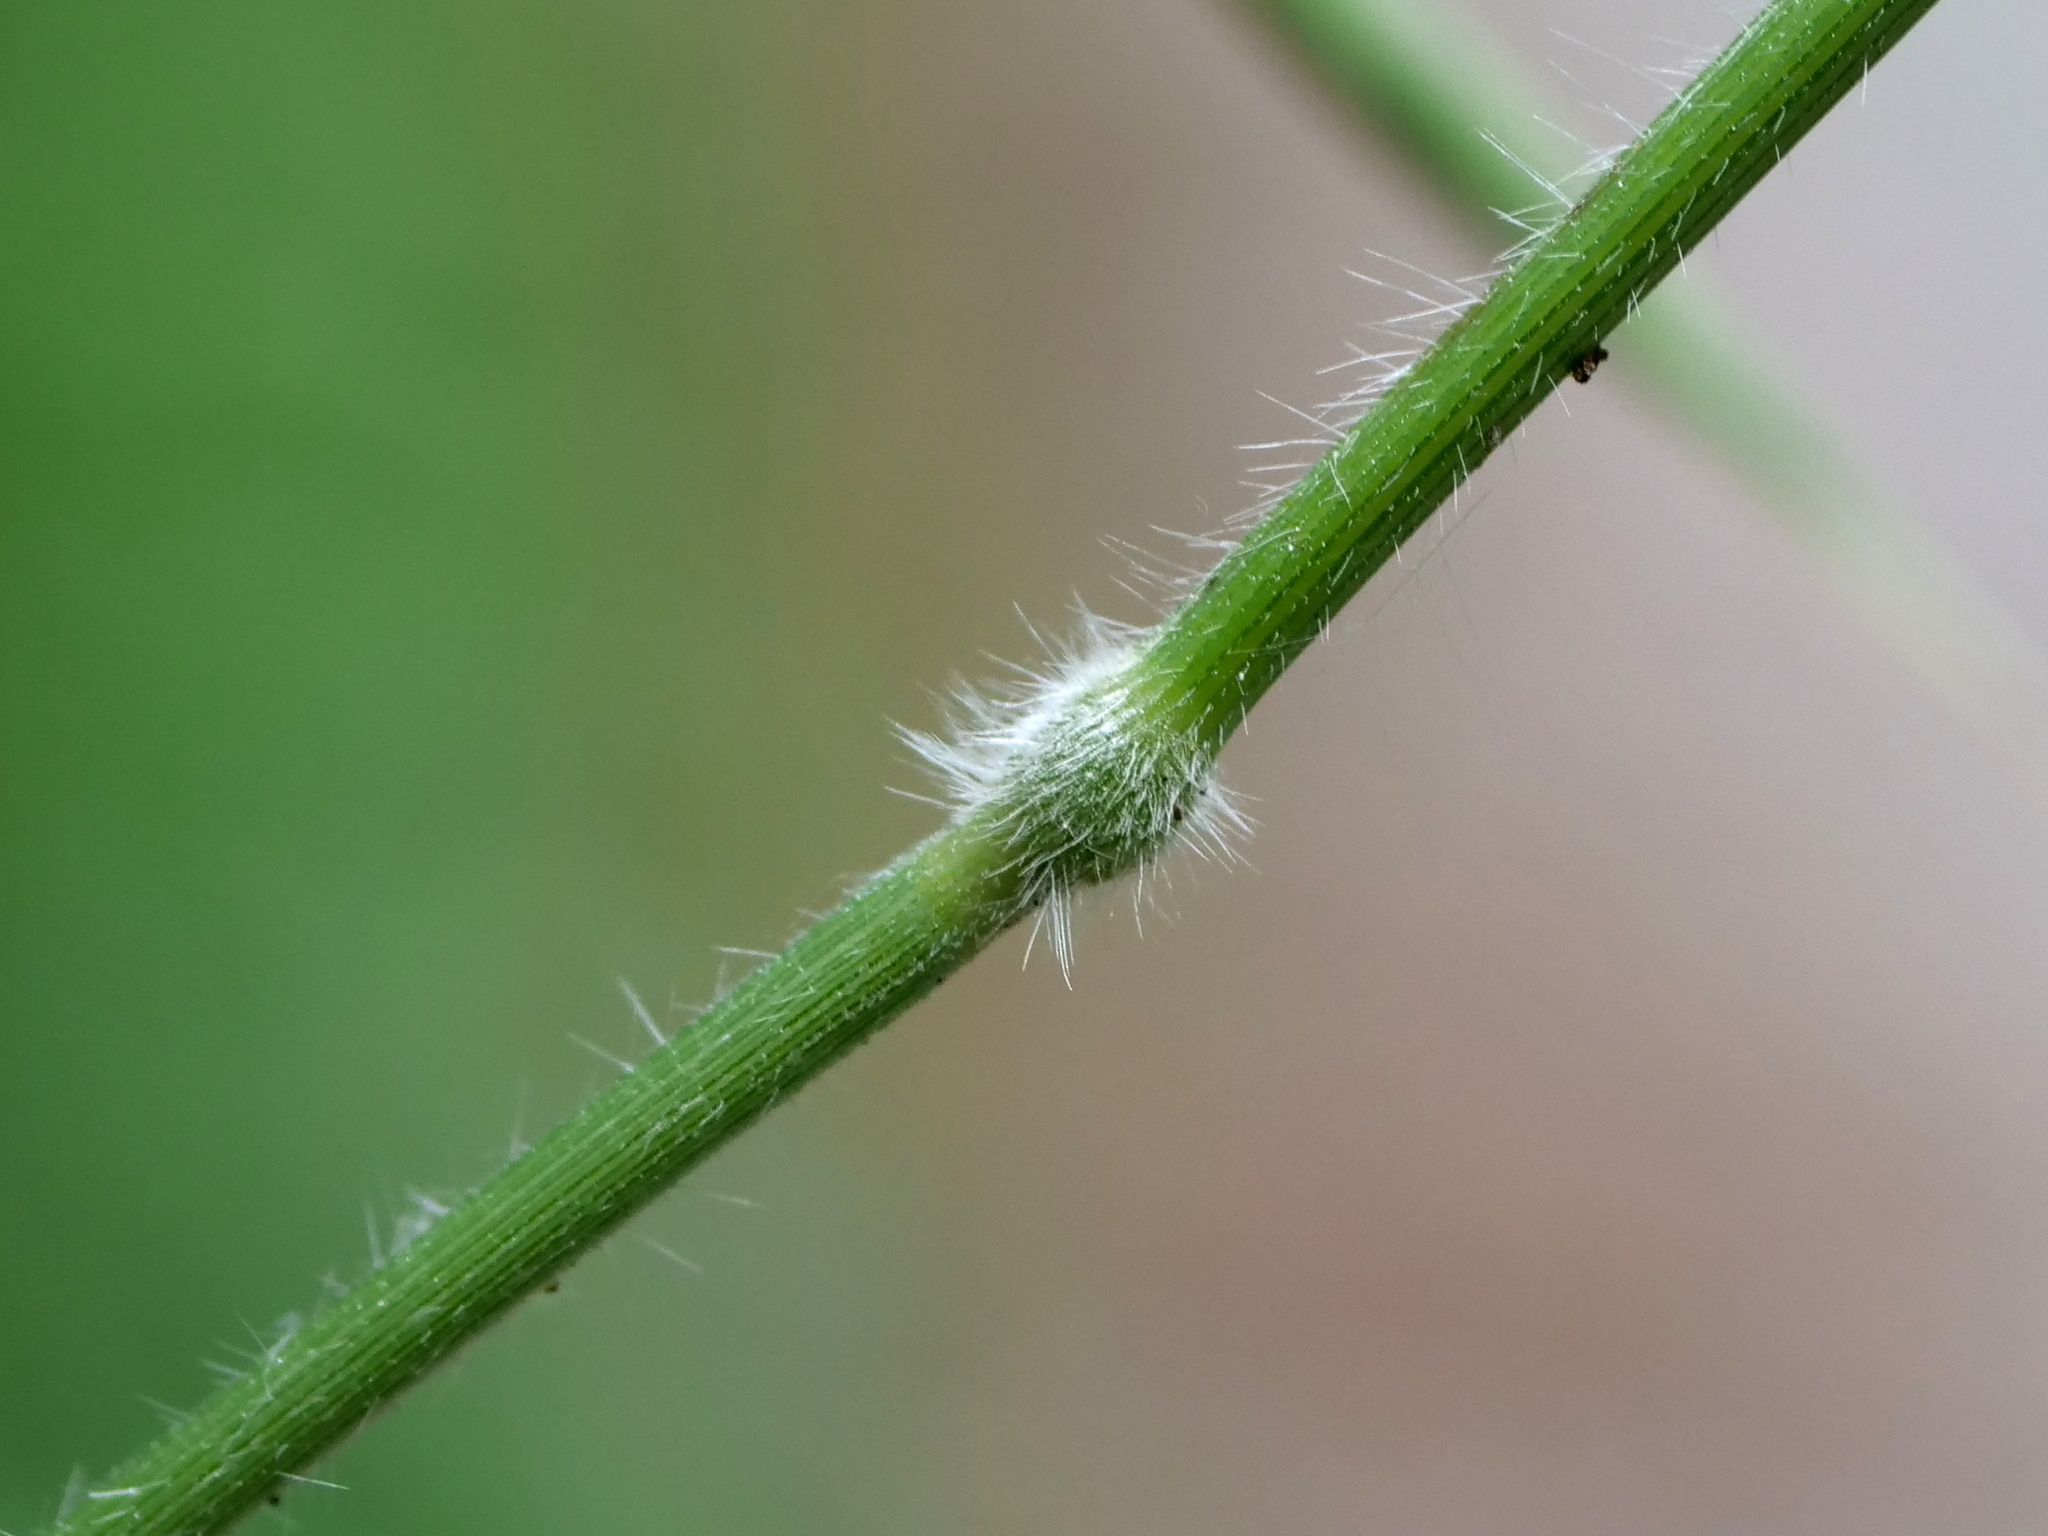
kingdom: Plantae
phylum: Tracheophyta
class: Liliopsida
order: Poales
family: Poaceae
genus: Brachypodium
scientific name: Brachypodium sylvaticum
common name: False-brome
